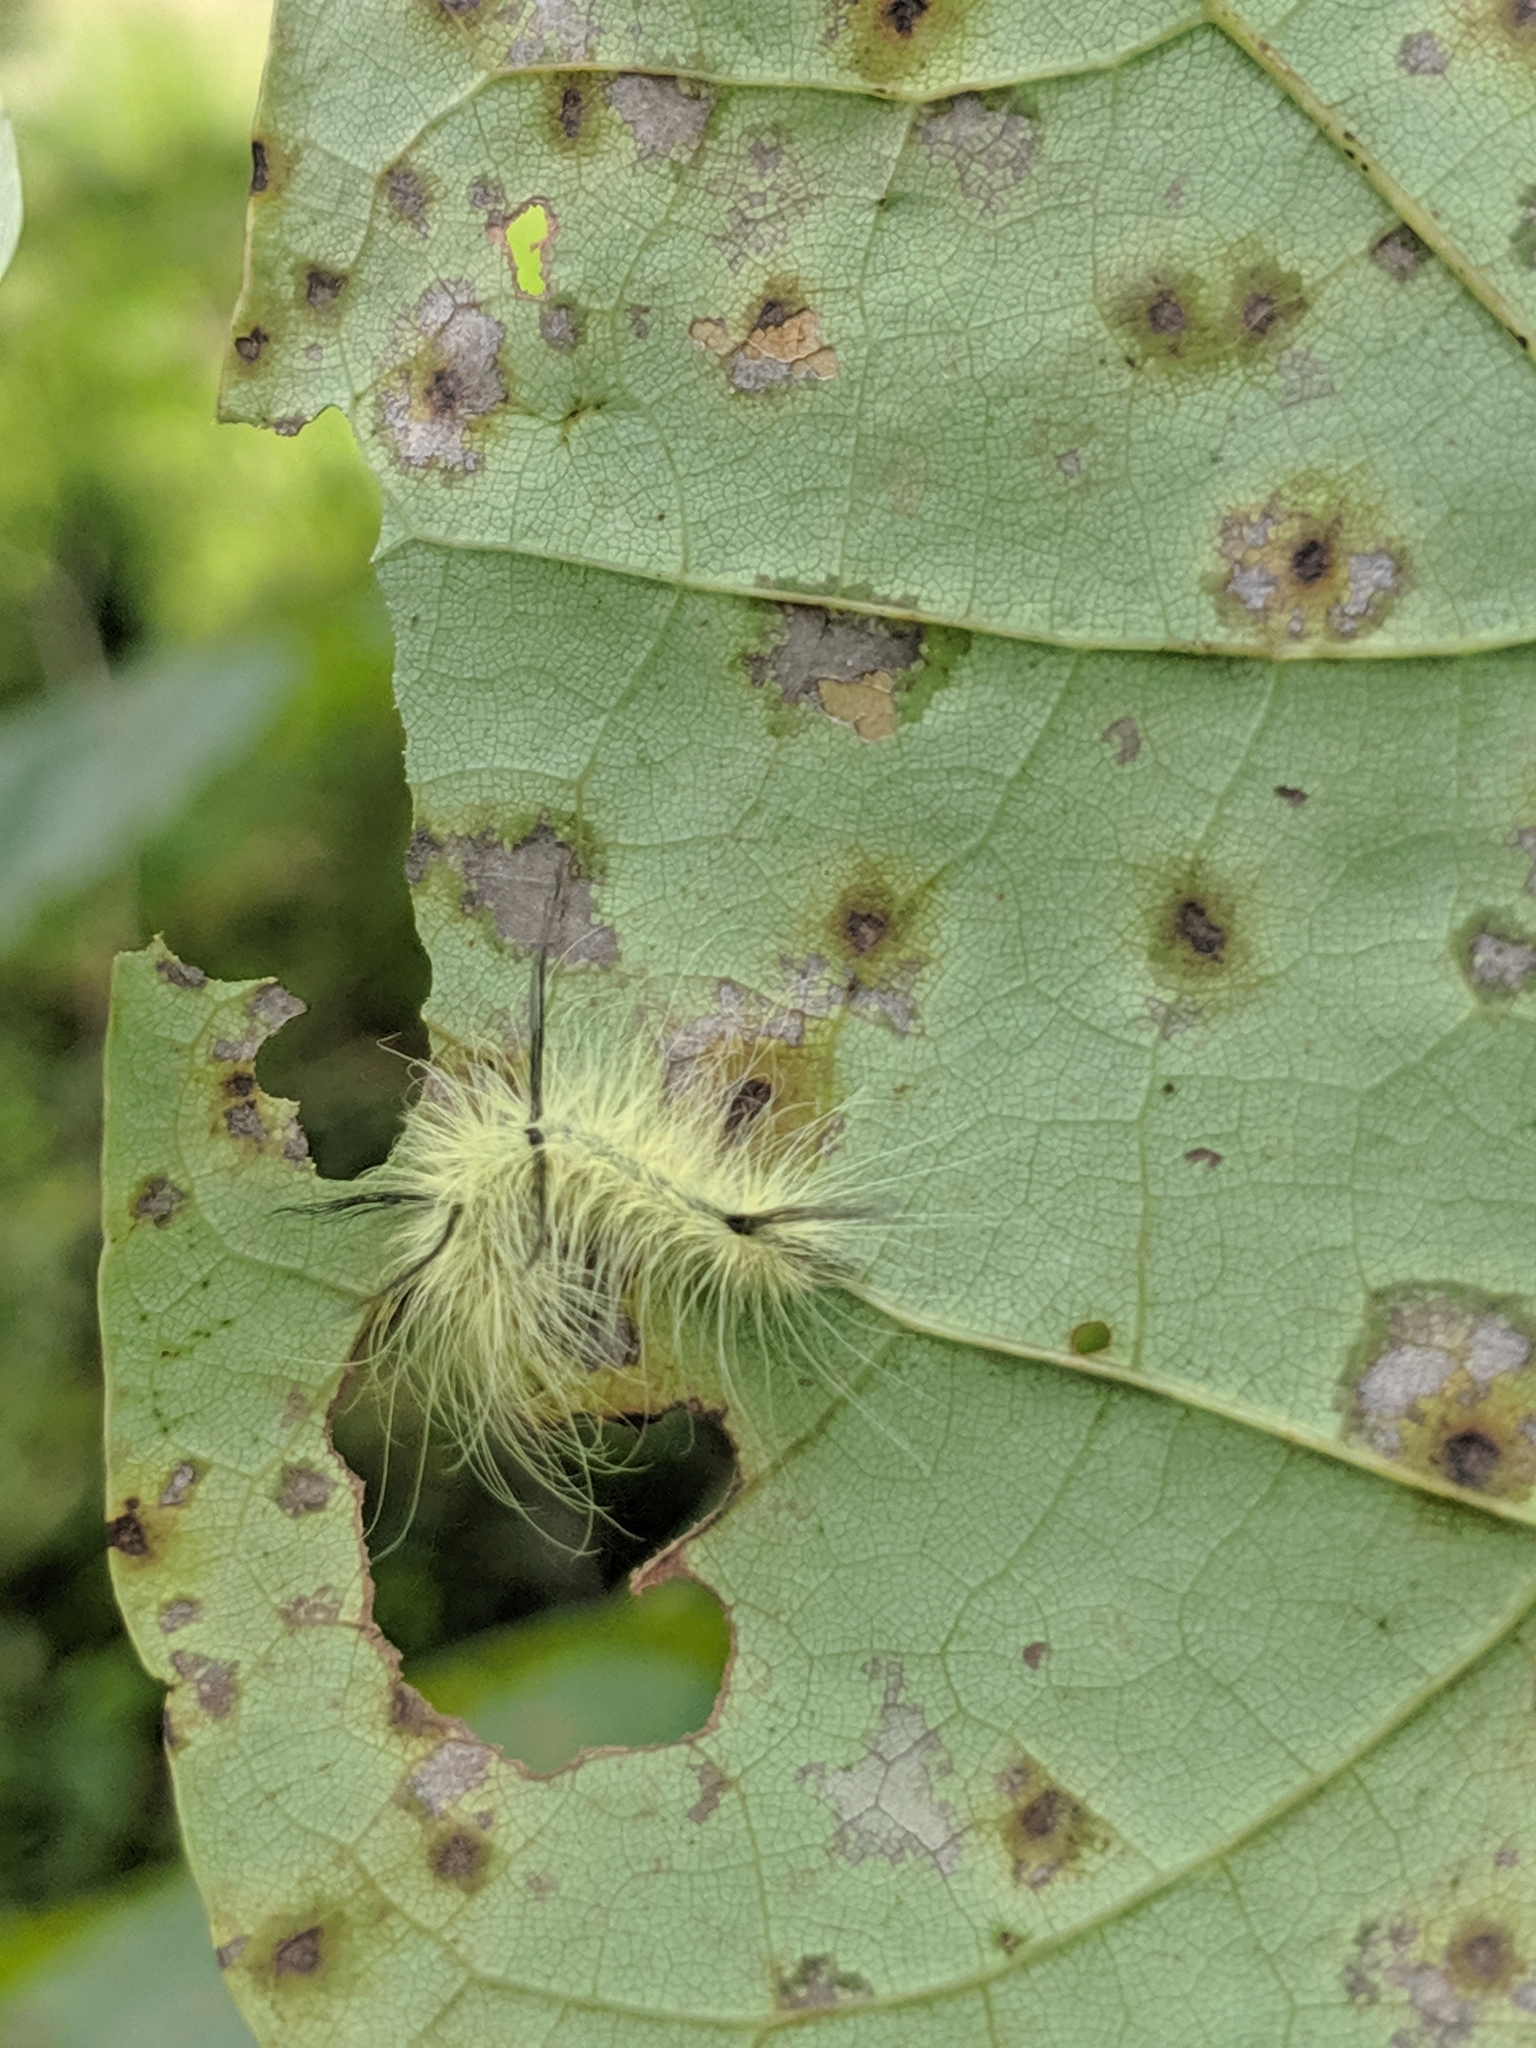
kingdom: Animalia
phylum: Arthropoda
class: Insecta
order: Lepidoptera
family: Noctuidae
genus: Acronicta
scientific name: Acronicta americana
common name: American dagger
